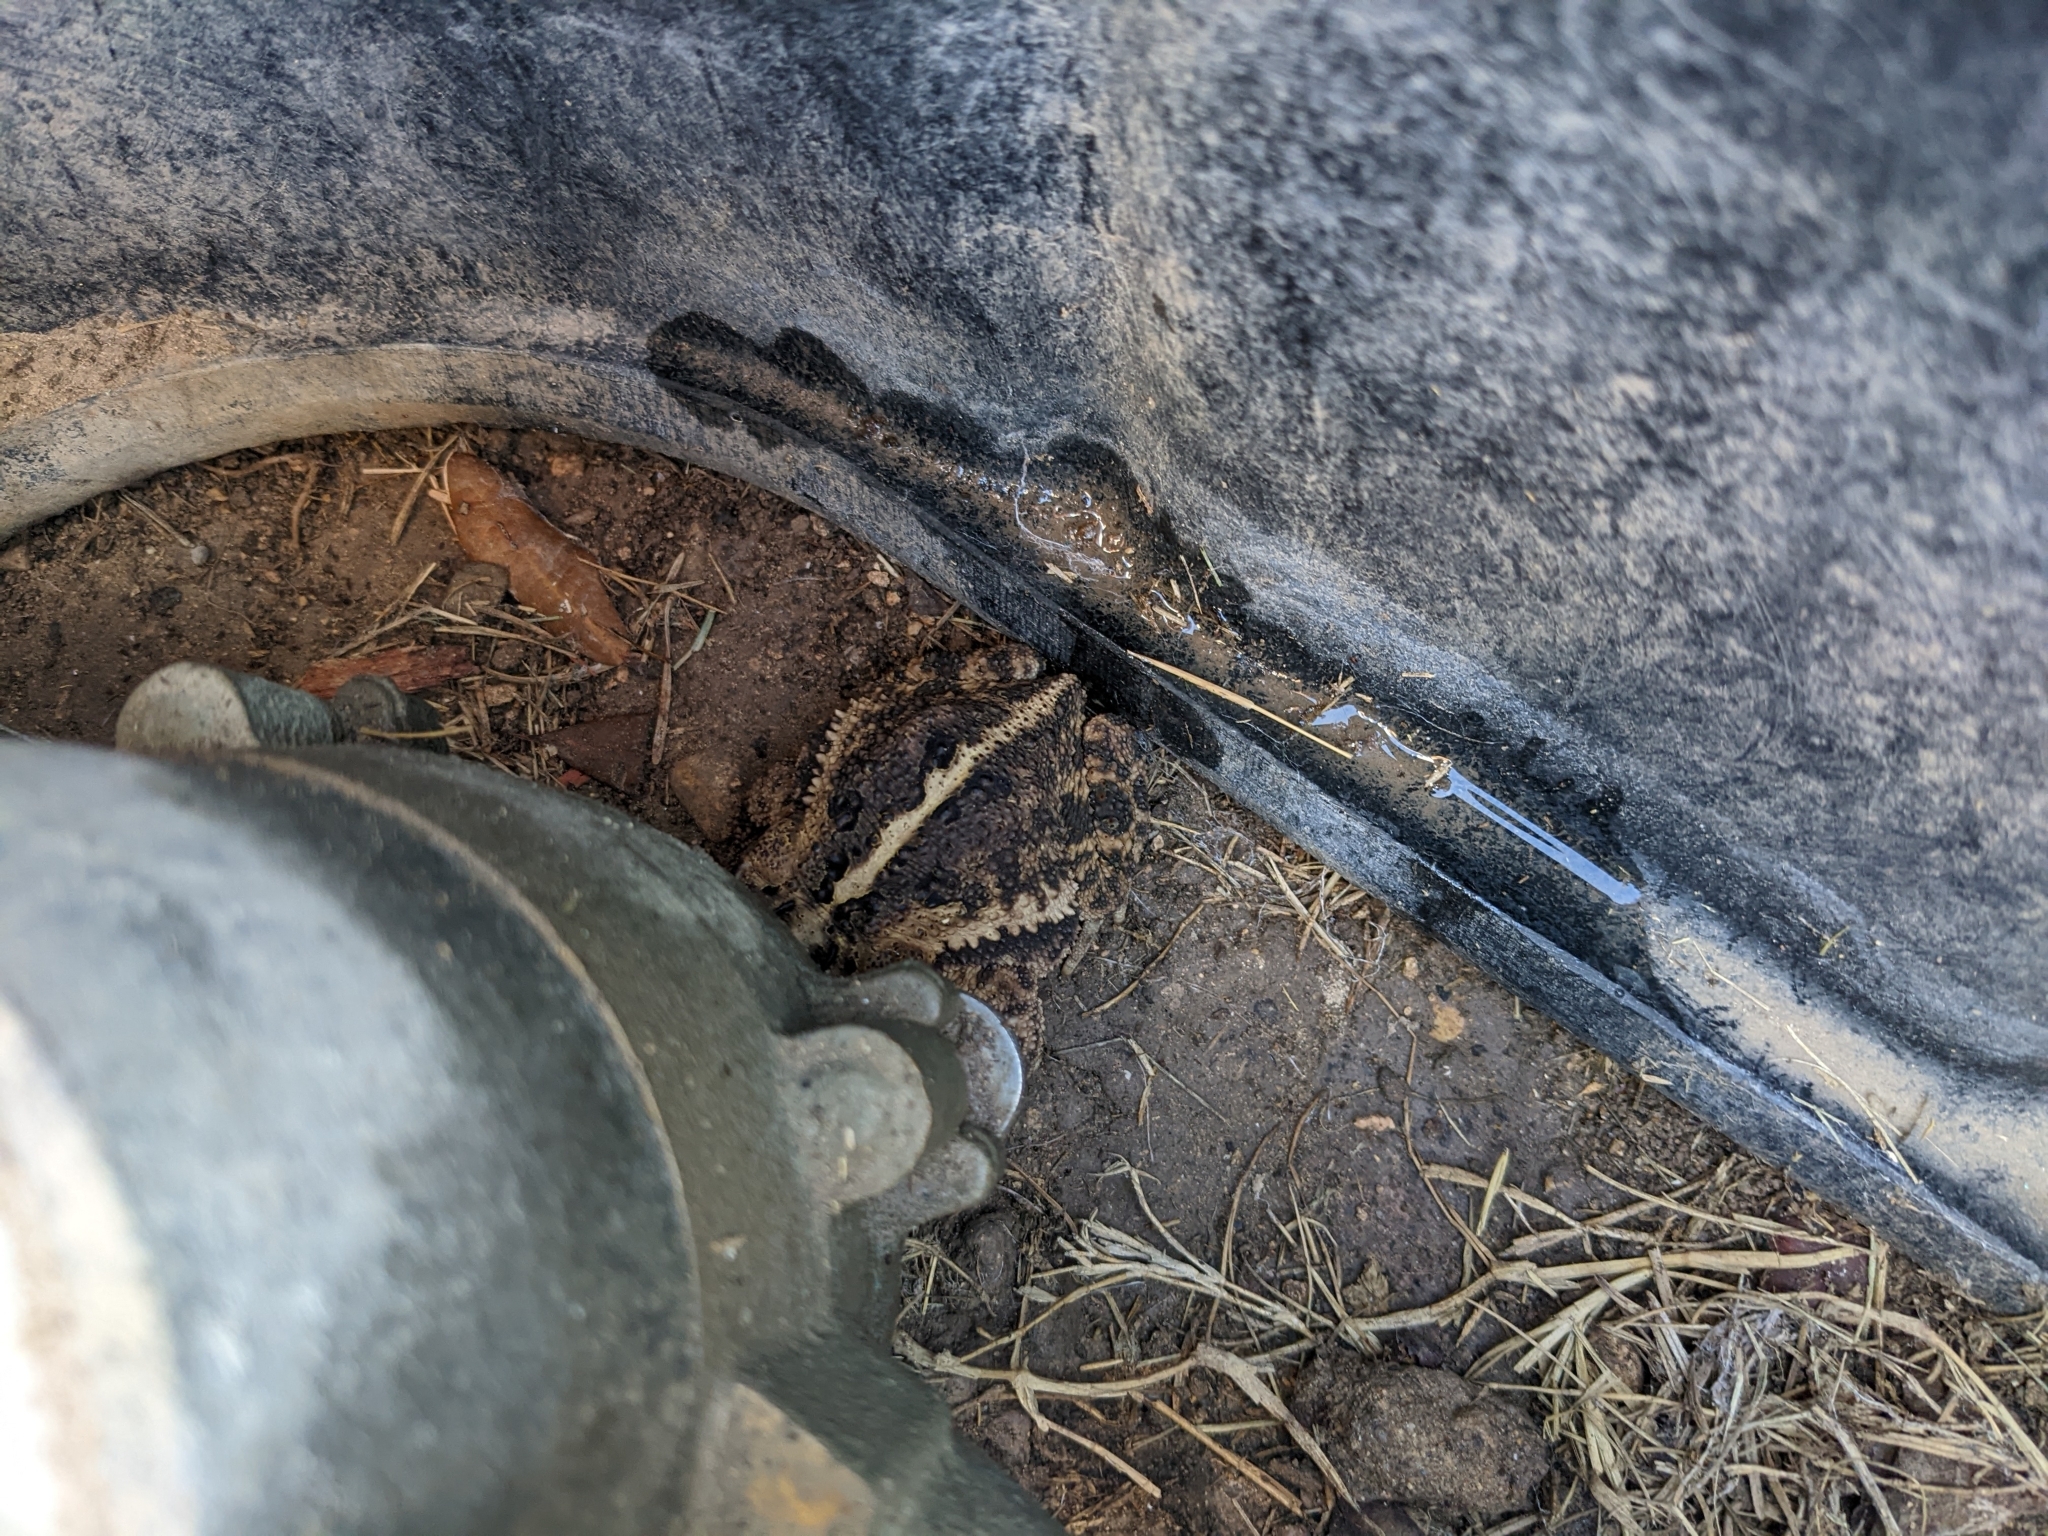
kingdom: Animalia
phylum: Chordata
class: Amphibia
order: Anura
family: Bufonidae
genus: Incilius
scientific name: Incilius nebulifer
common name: Gulf coast toad
